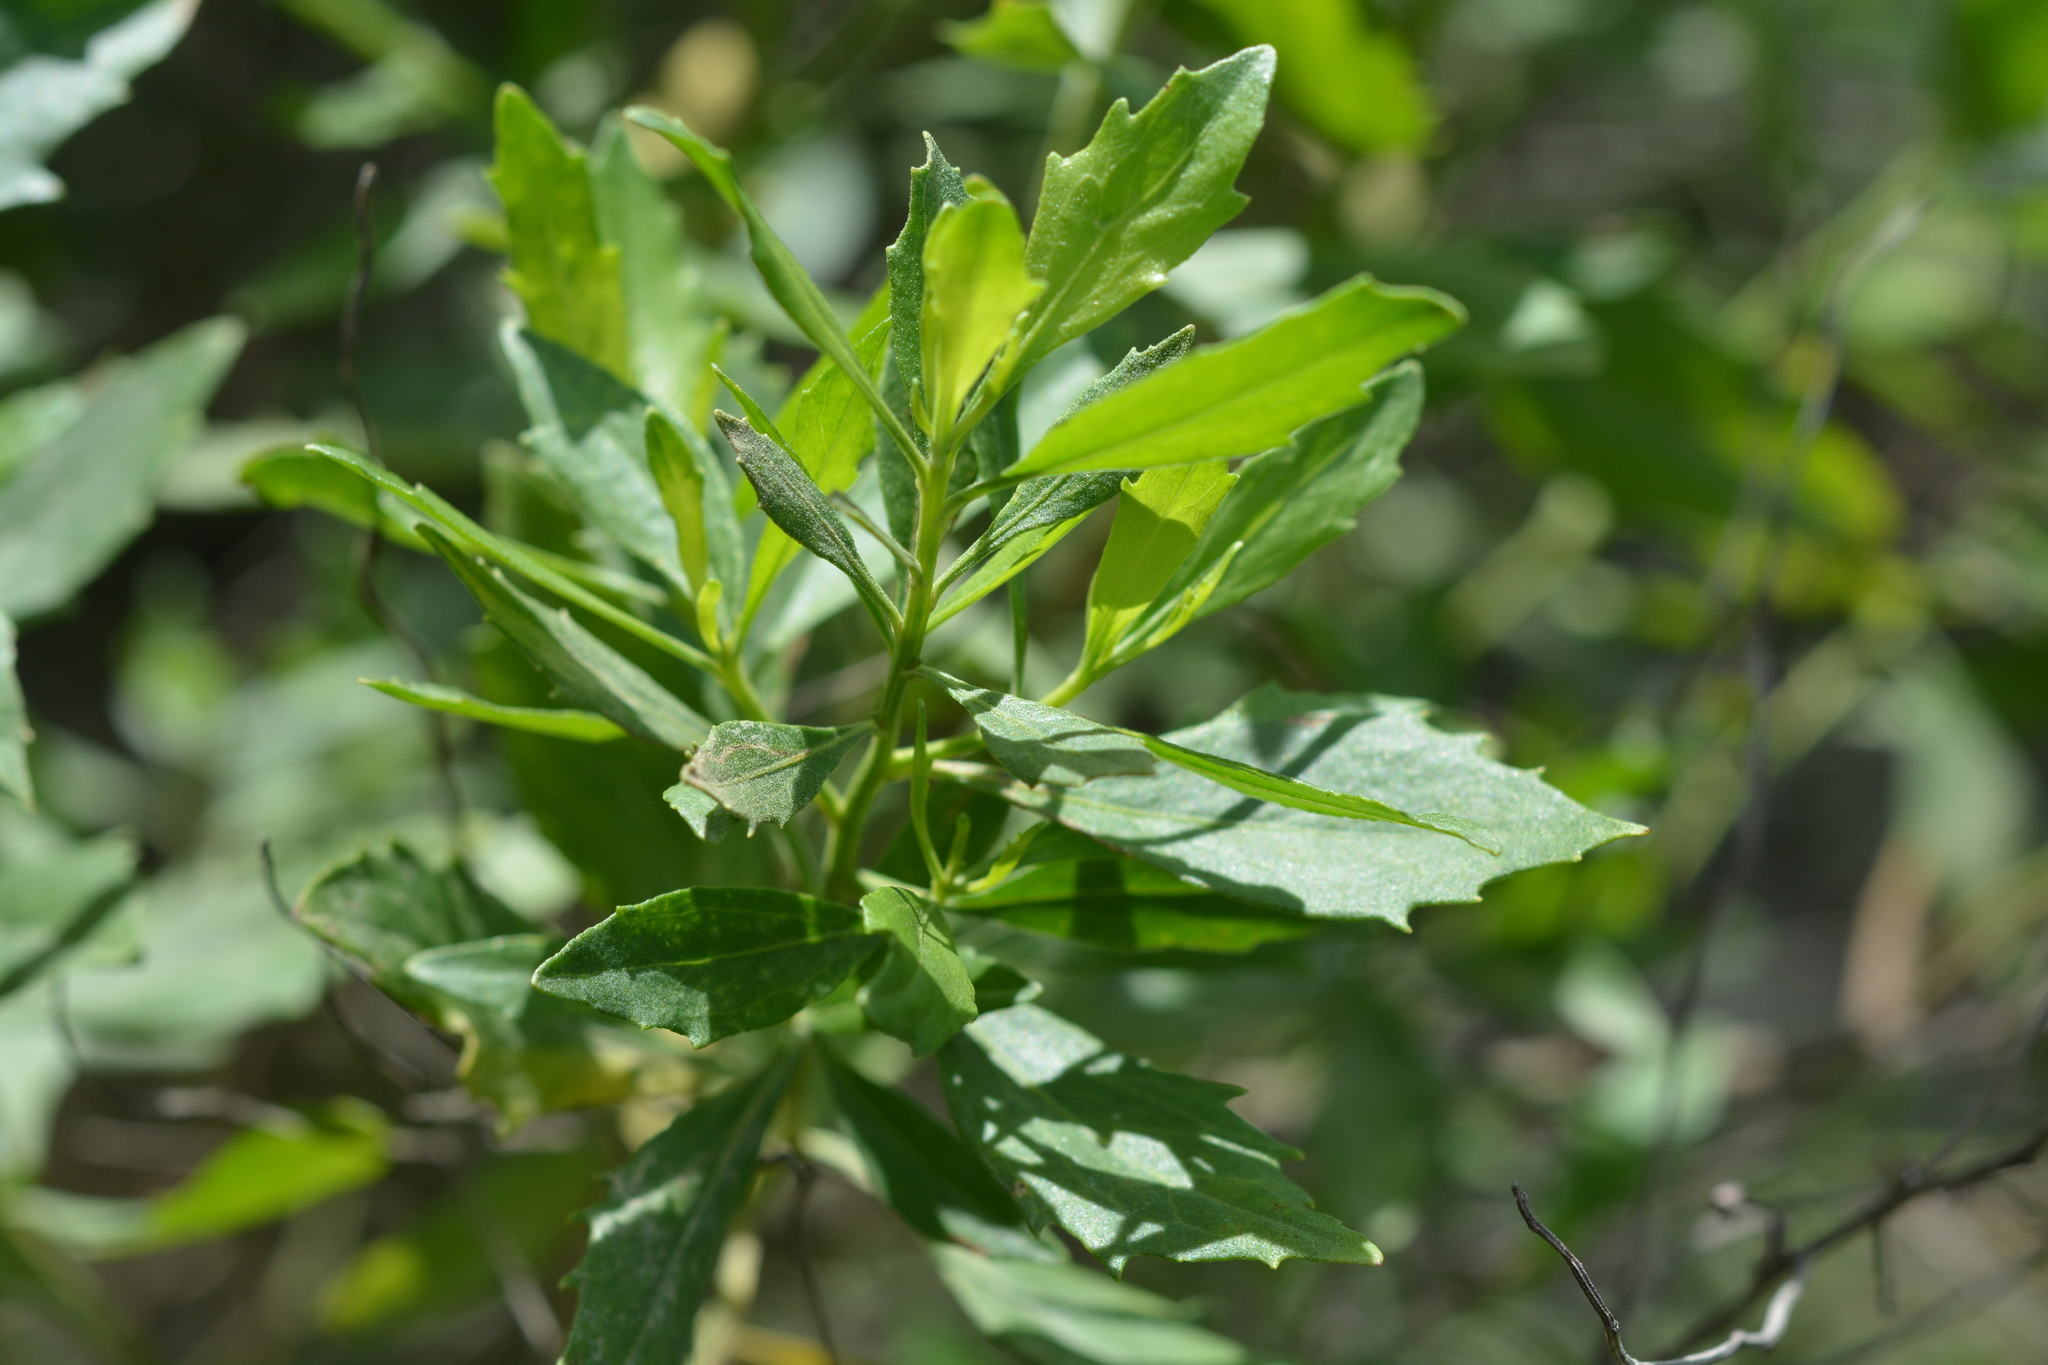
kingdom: Plantae
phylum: Tracheophyta
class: Magnoliopsida
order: Asterales
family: Asteraceae
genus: Baccharis
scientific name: Baccharis halimifolia
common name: Eastern baccharis
